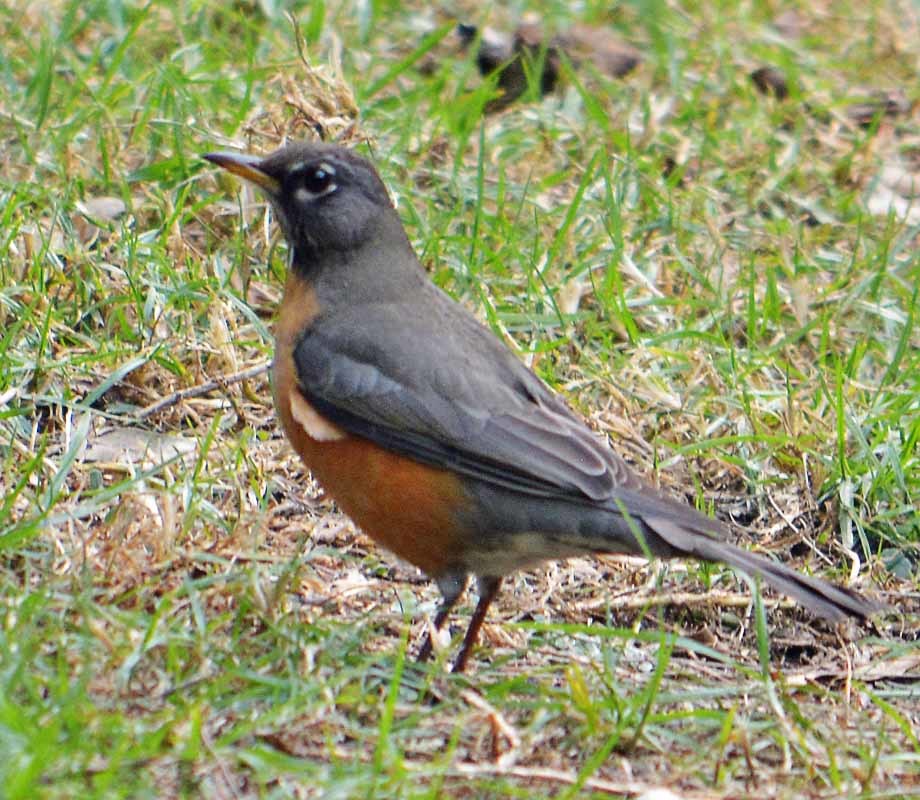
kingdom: Animalia
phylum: Chordata
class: Aves
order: Passeriformes
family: Turdidae
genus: Turdus
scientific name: Turdus migratorius
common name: American robin
